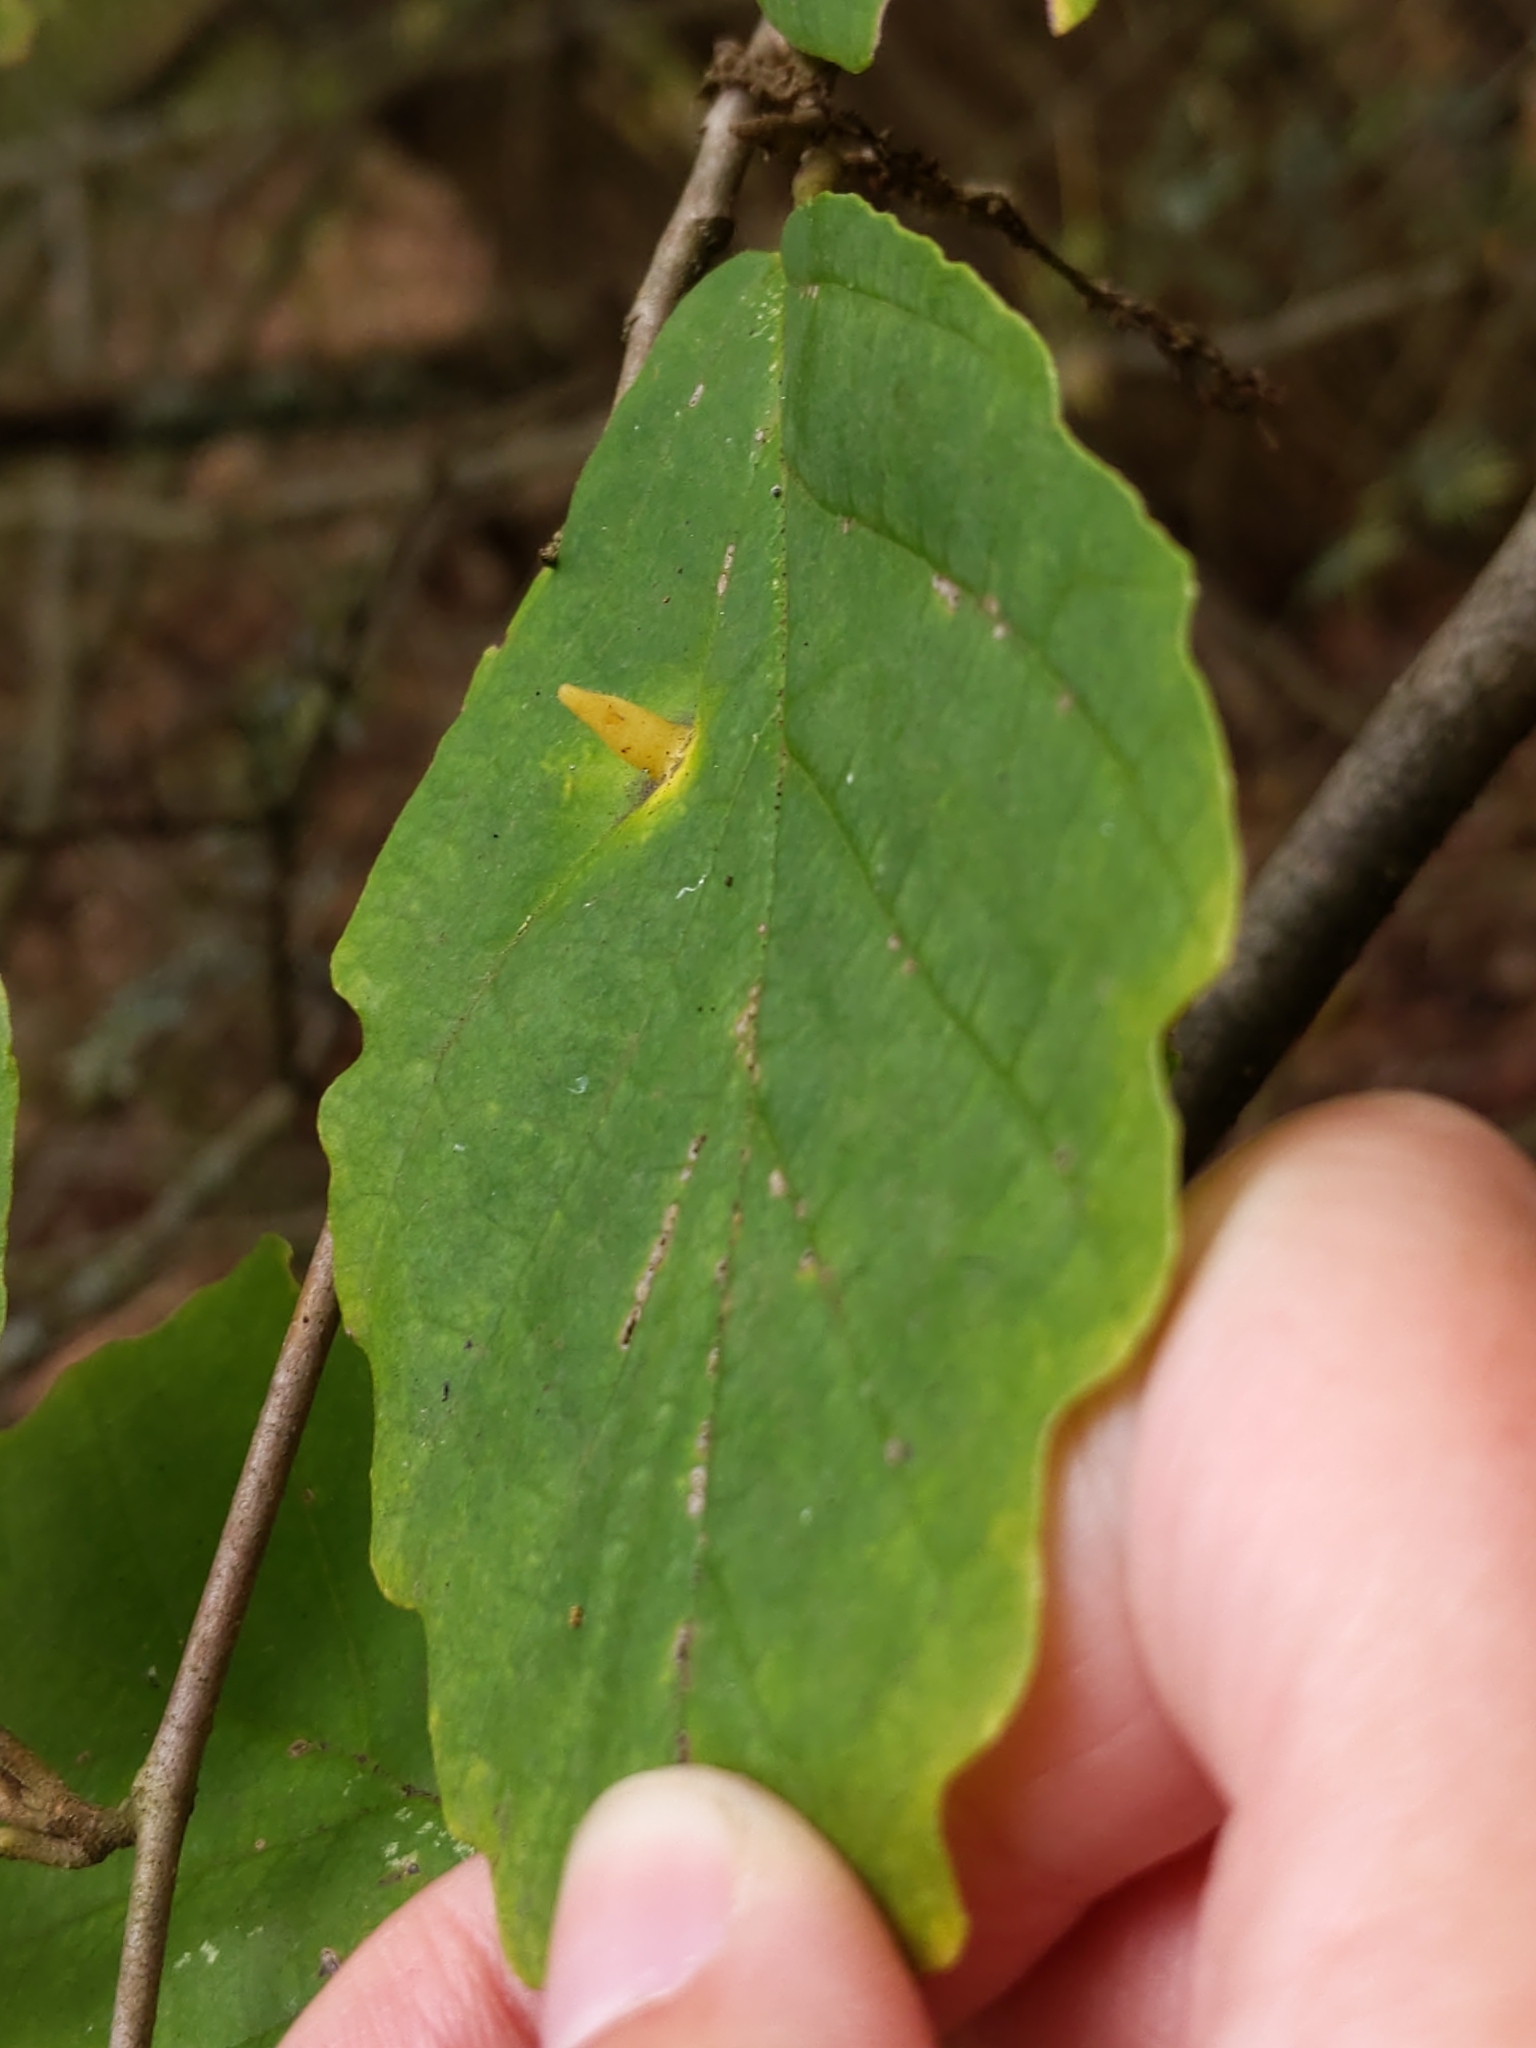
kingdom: Animalia
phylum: Arthropoda
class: Insecta
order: Hemiptera
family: Aphididae
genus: Hormaphis
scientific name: Hormaphis hamamelidis
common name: Witch-hazel cone gall aphid
